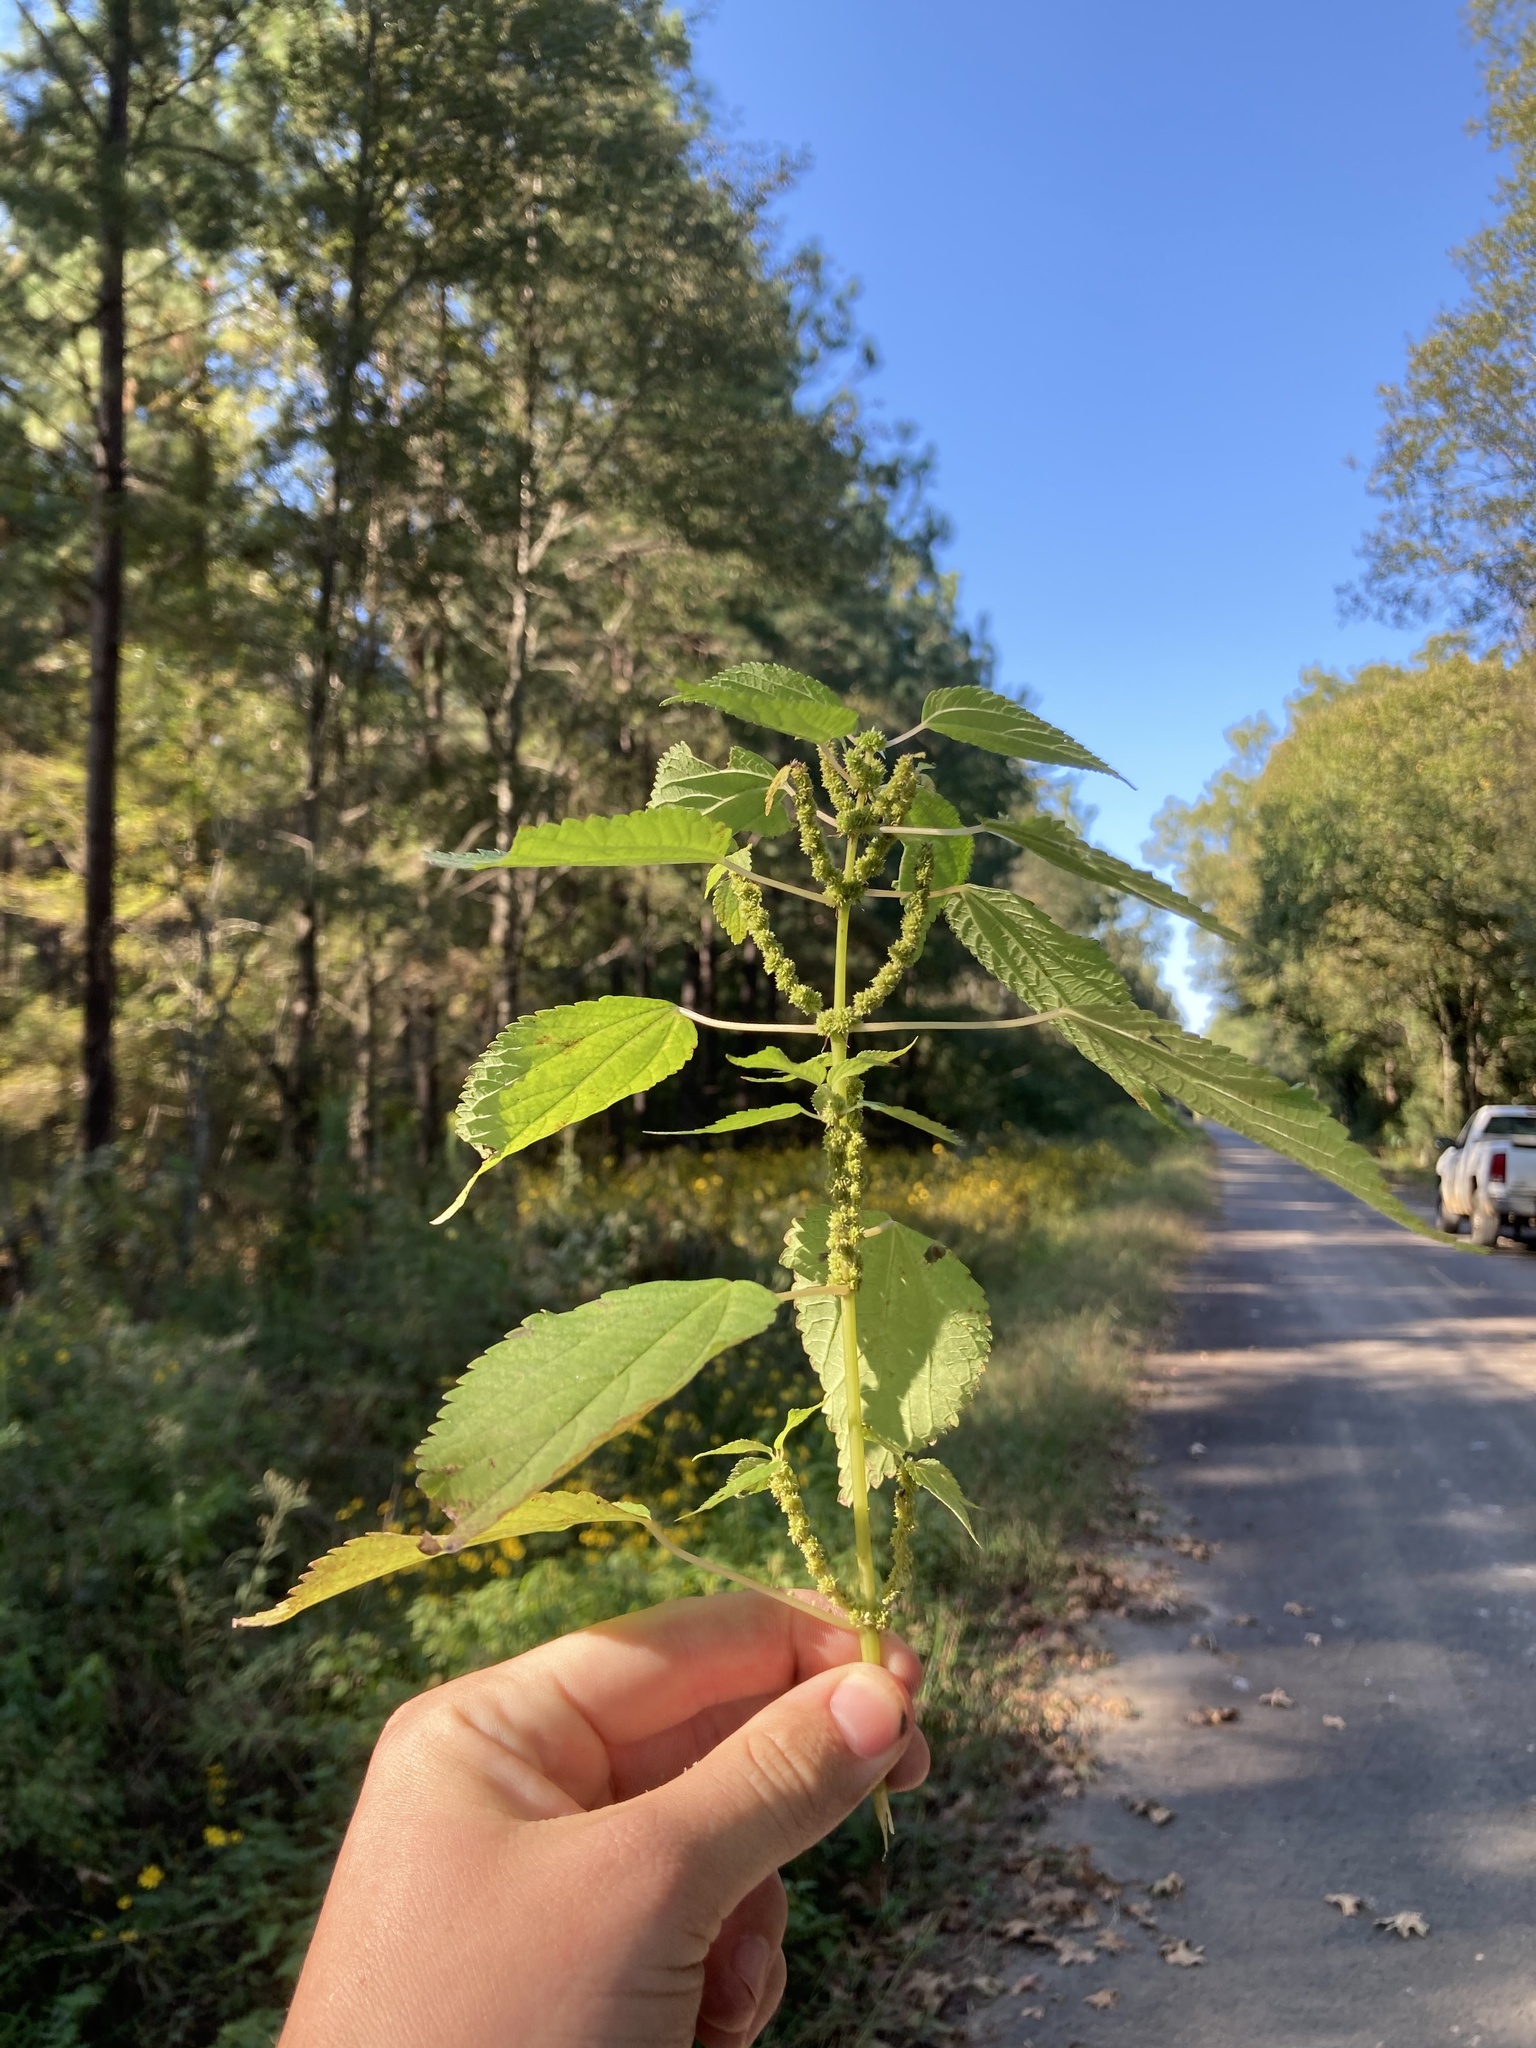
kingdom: Plantae
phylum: Tracheophyta
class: Magnoliopsida
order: Rosales
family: Urticaceae
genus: Boehmeria
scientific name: Boehmeria cylindrica
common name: Bog-hemp
